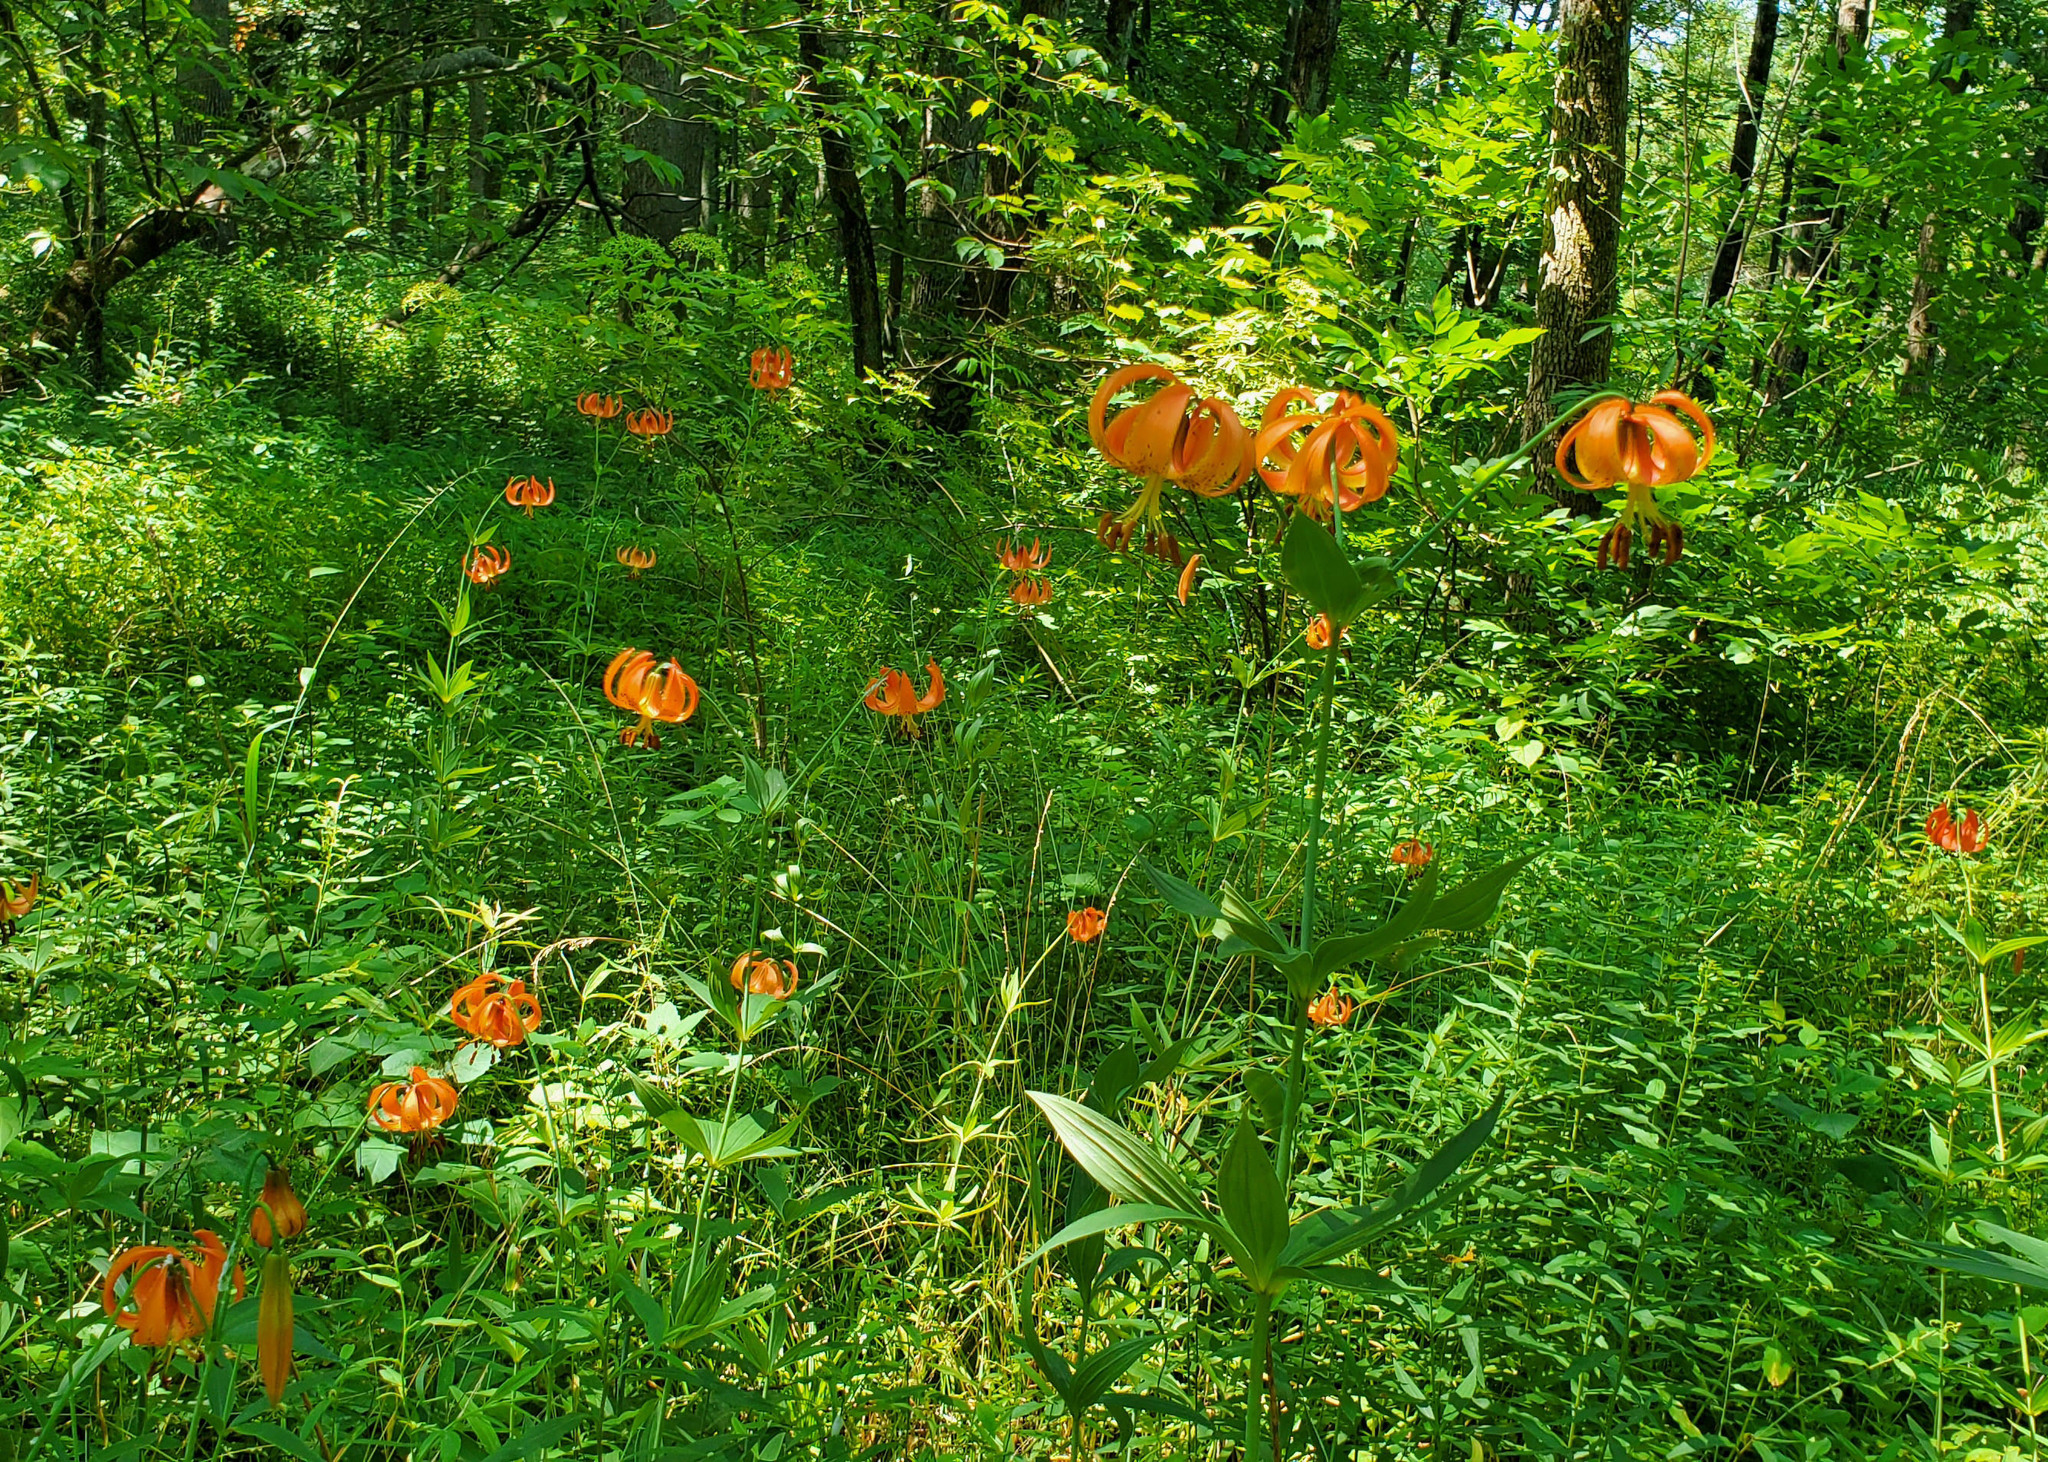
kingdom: Plantae
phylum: Tracheophyta
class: Liliopsida
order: Liliales
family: Liliaceae
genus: Lilium
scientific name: Lilium michiganense
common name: Michigan lily
